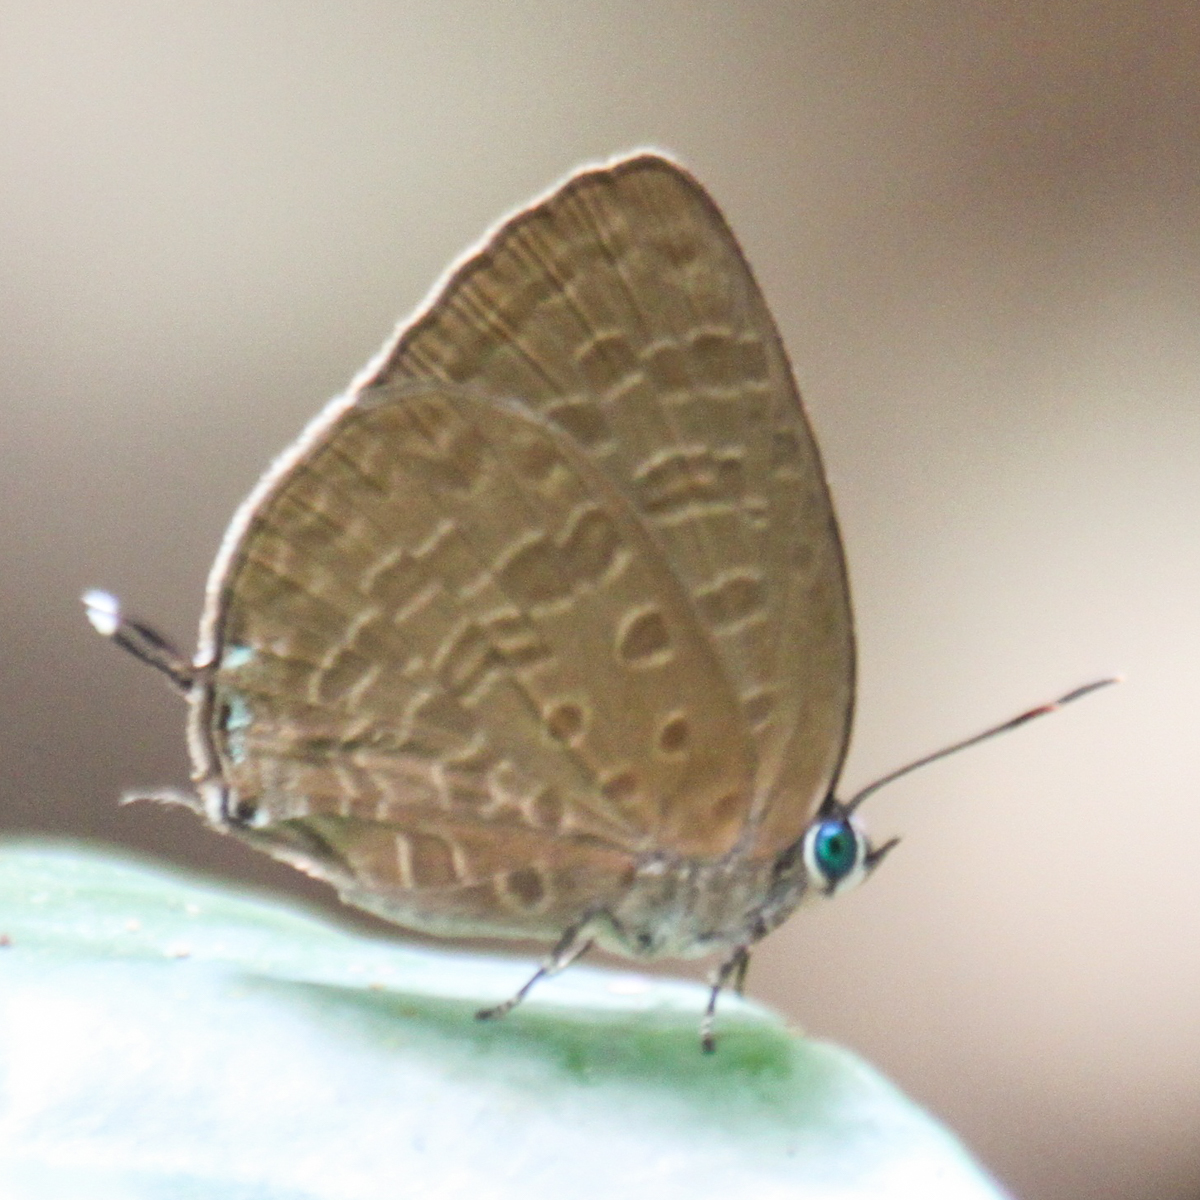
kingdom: Animalia
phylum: Arthropoda
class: Insecta
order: Lepidoptera
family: Lycaenidae
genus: Arhopala
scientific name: Arhopala elopura
